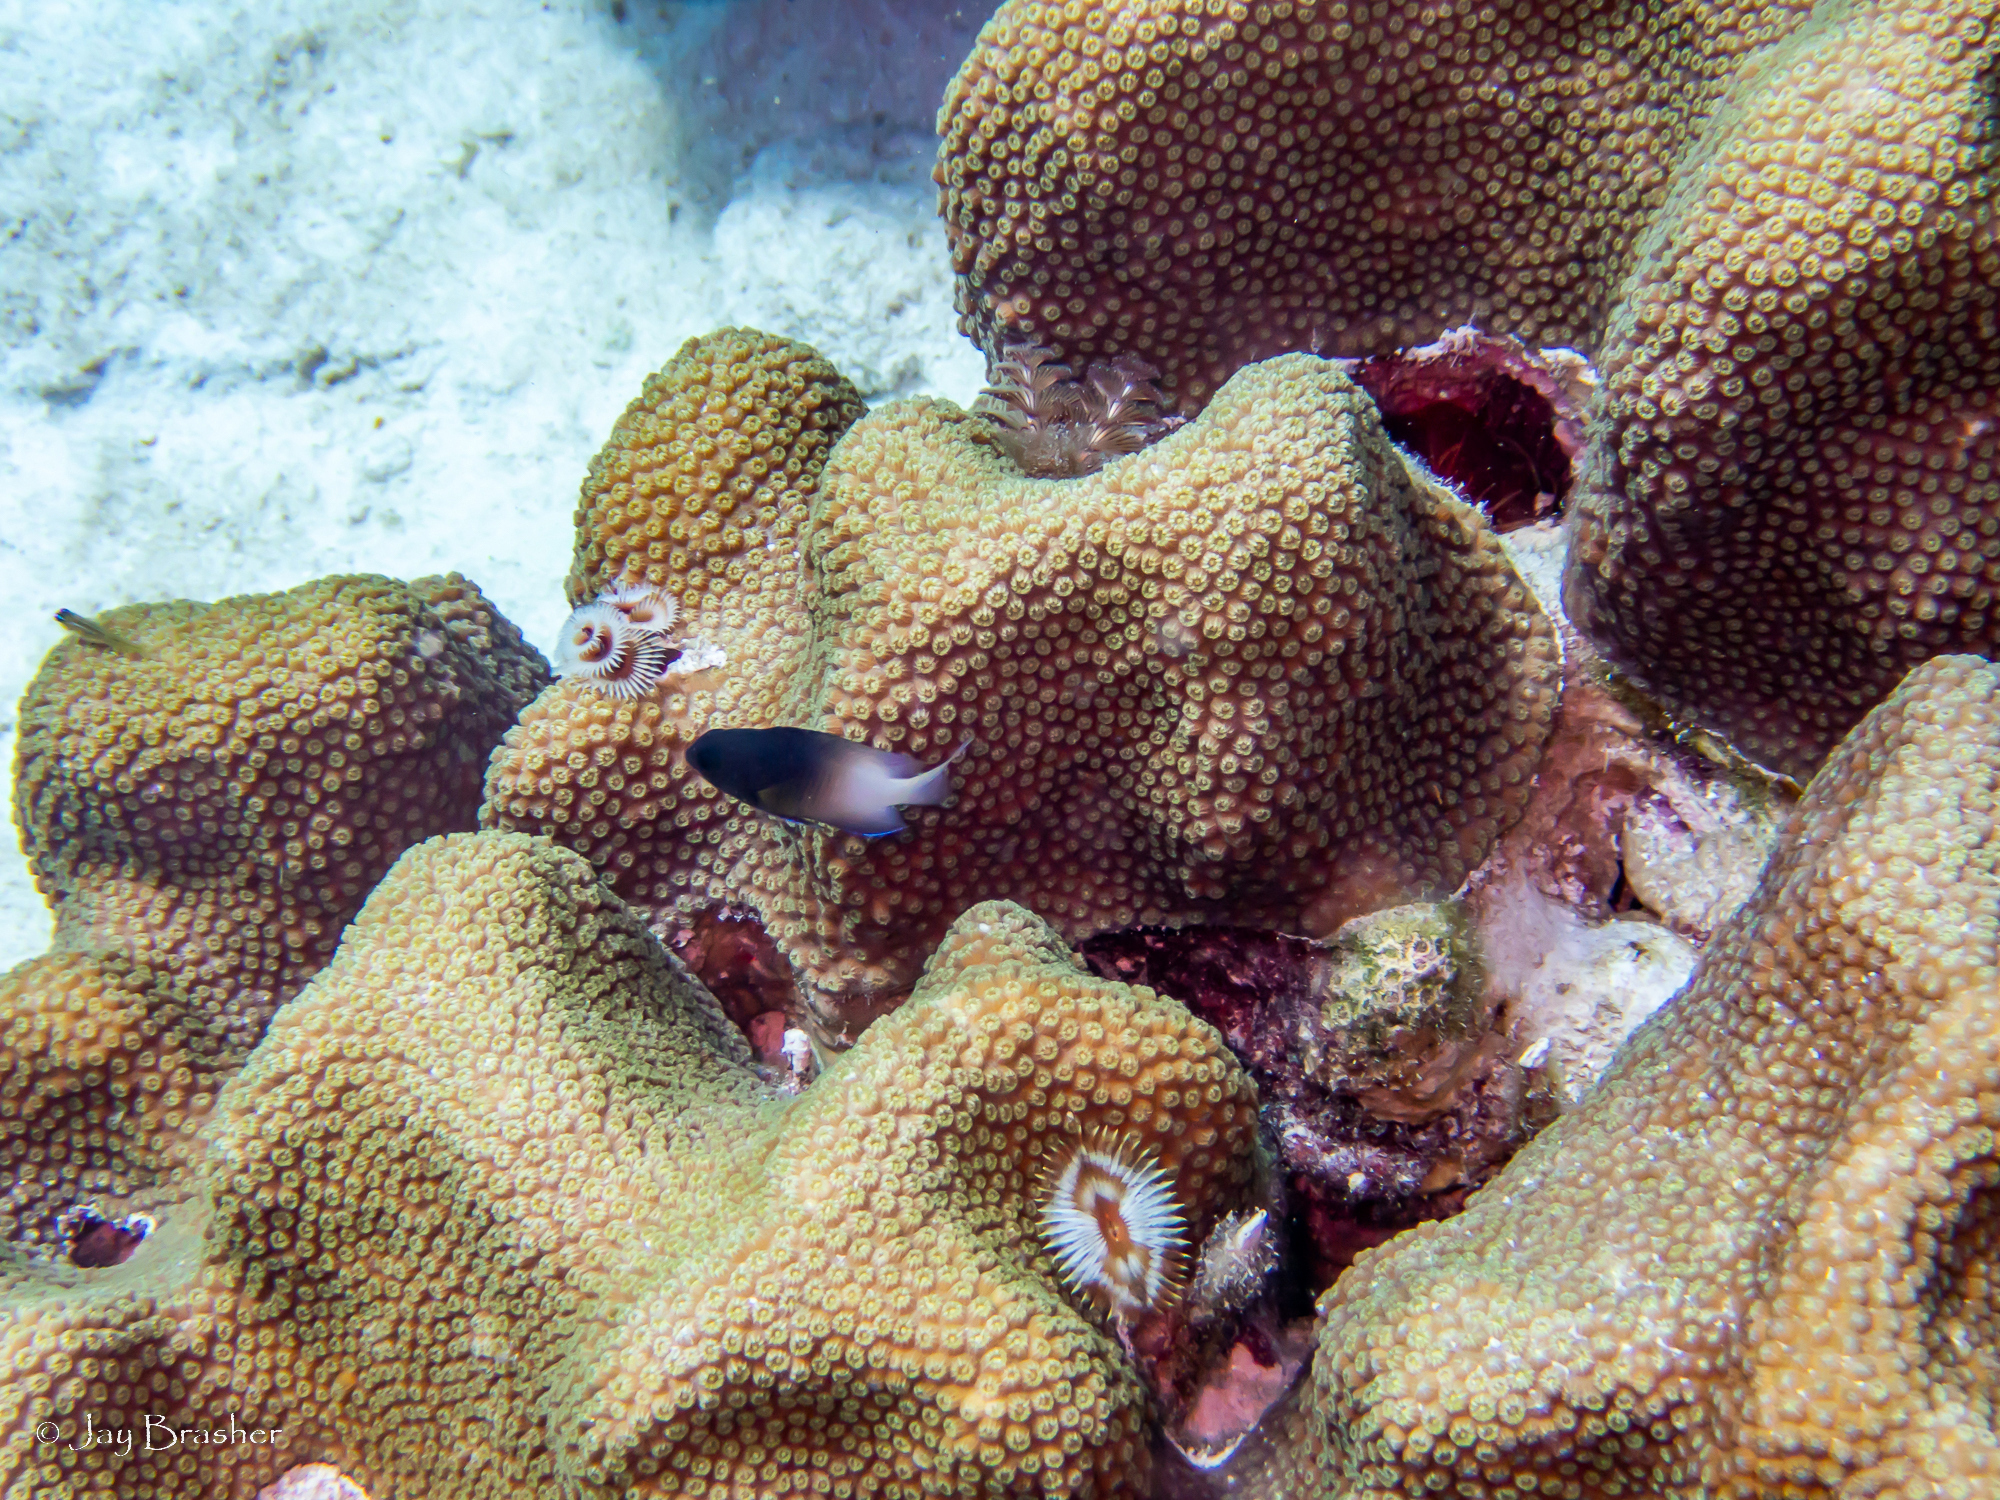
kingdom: Animalia
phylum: Chordata
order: Perciformes
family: Pomacentridae
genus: Stegastes
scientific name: Stegastes partitus
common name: Bicolor damselfish
